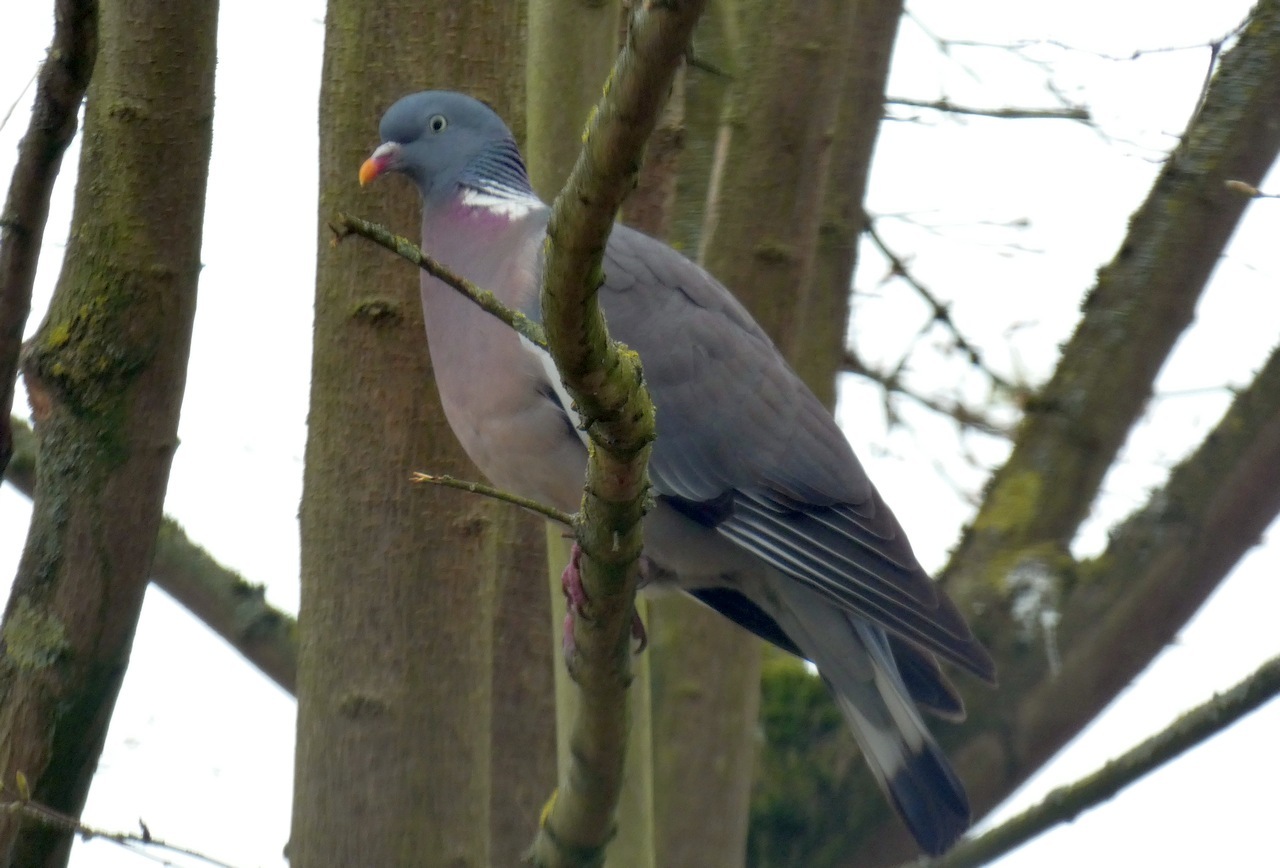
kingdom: Animalia
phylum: Chordata
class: Aves
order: Columbiformes
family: Columbidae
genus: Columba
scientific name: Columba palumbus
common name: Common wood pigeon
